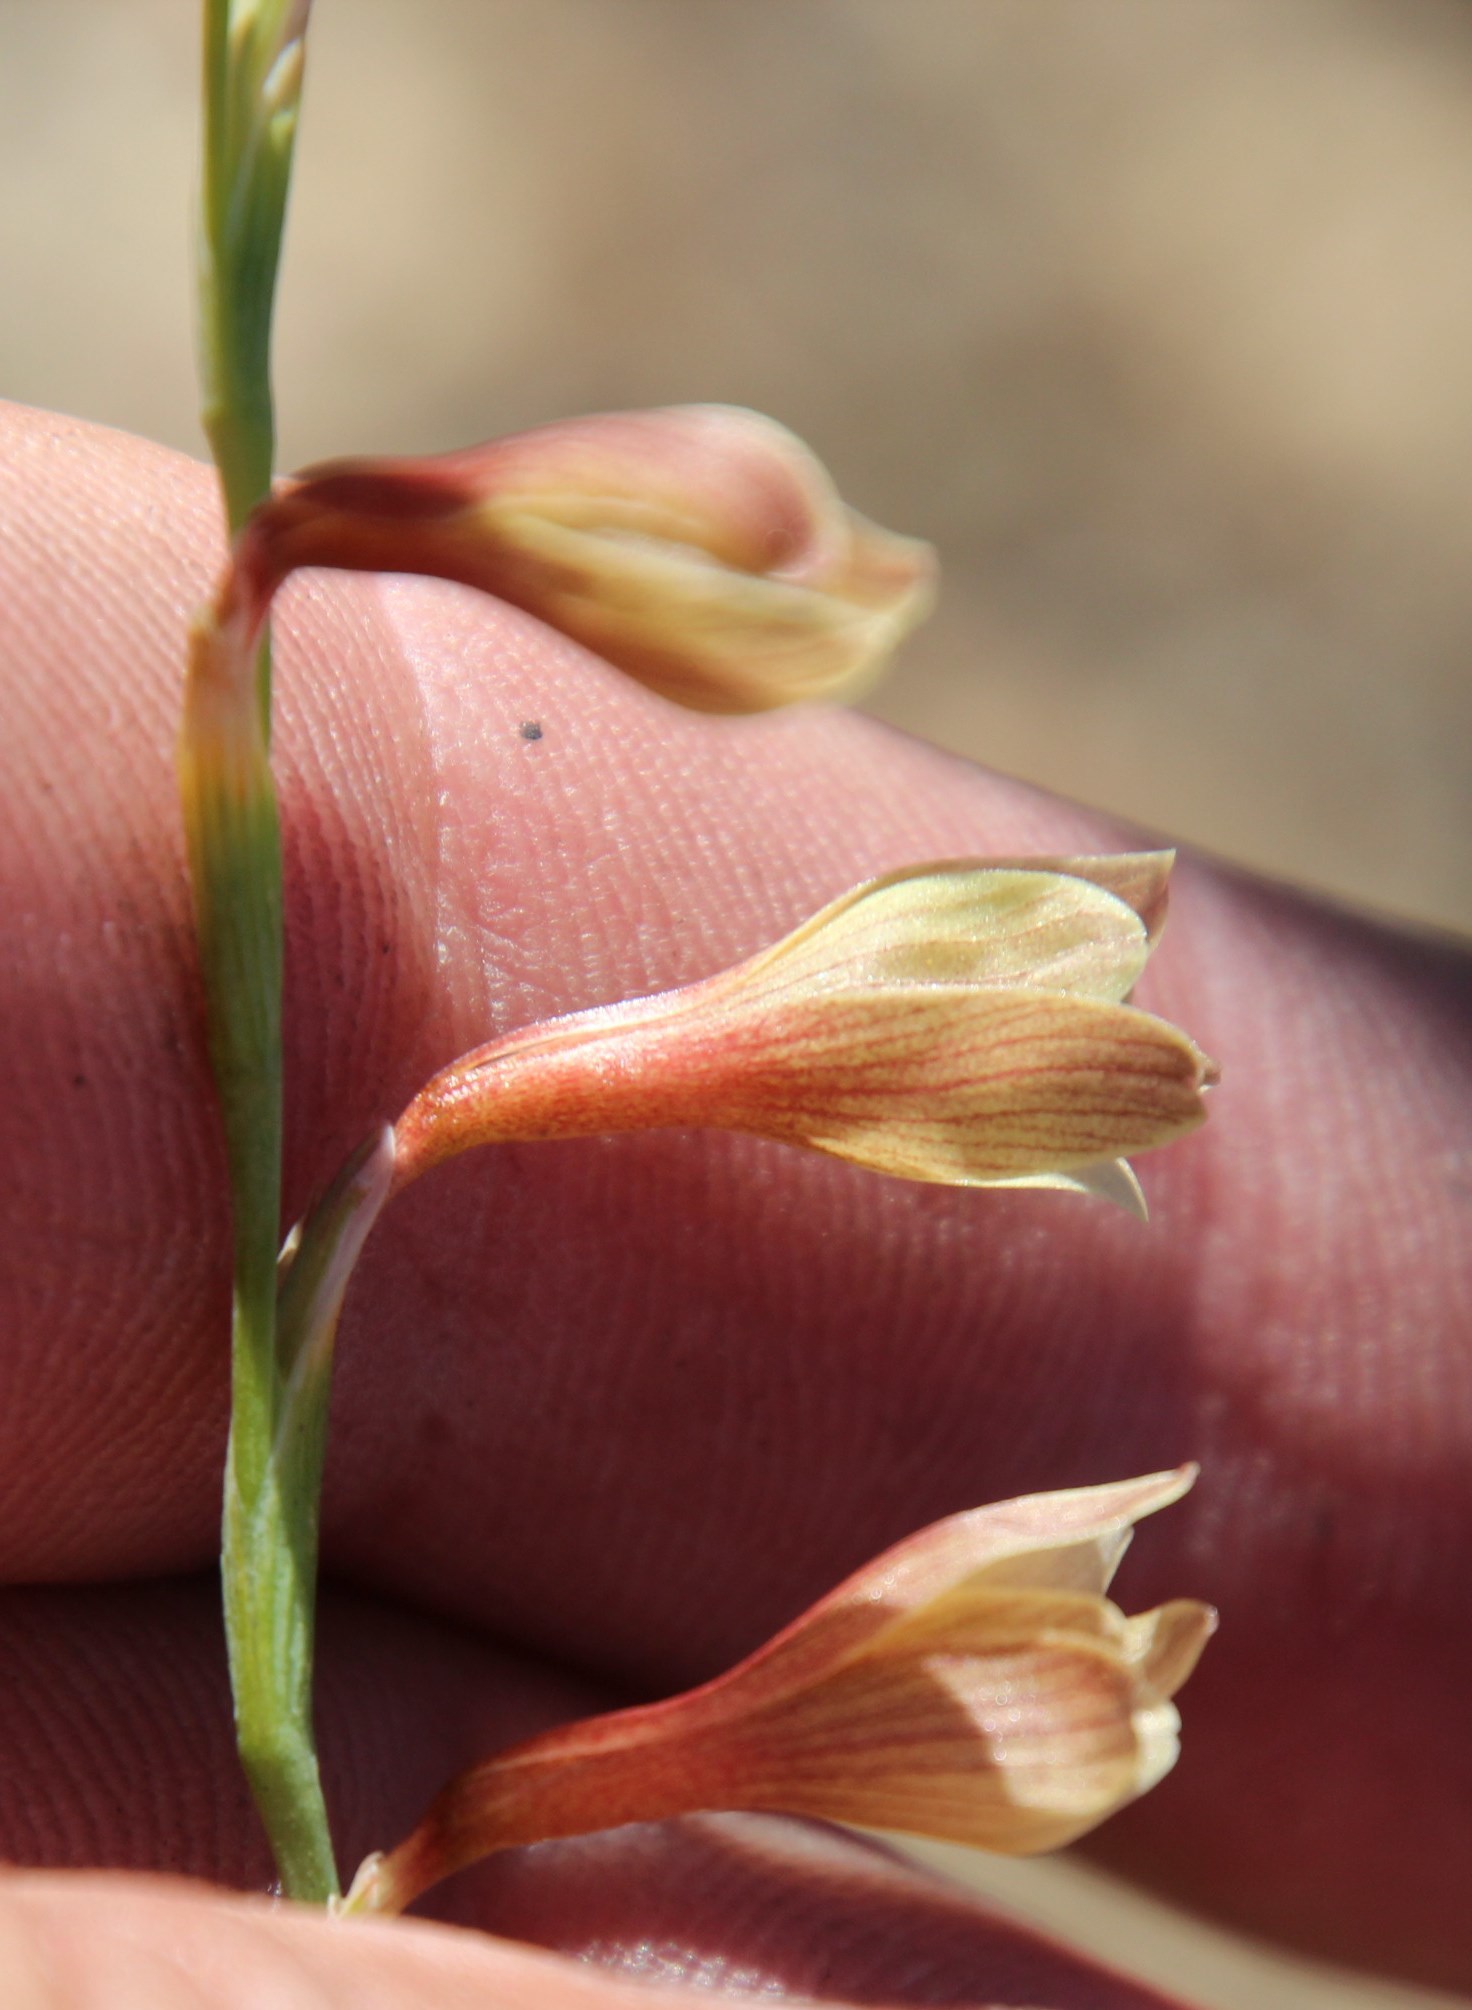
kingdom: Plantae
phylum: Tracheophyta
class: Liliopsida
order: Asparagales
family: Iridaceae
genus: Hesperantha
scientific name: Hesperantha radiata
